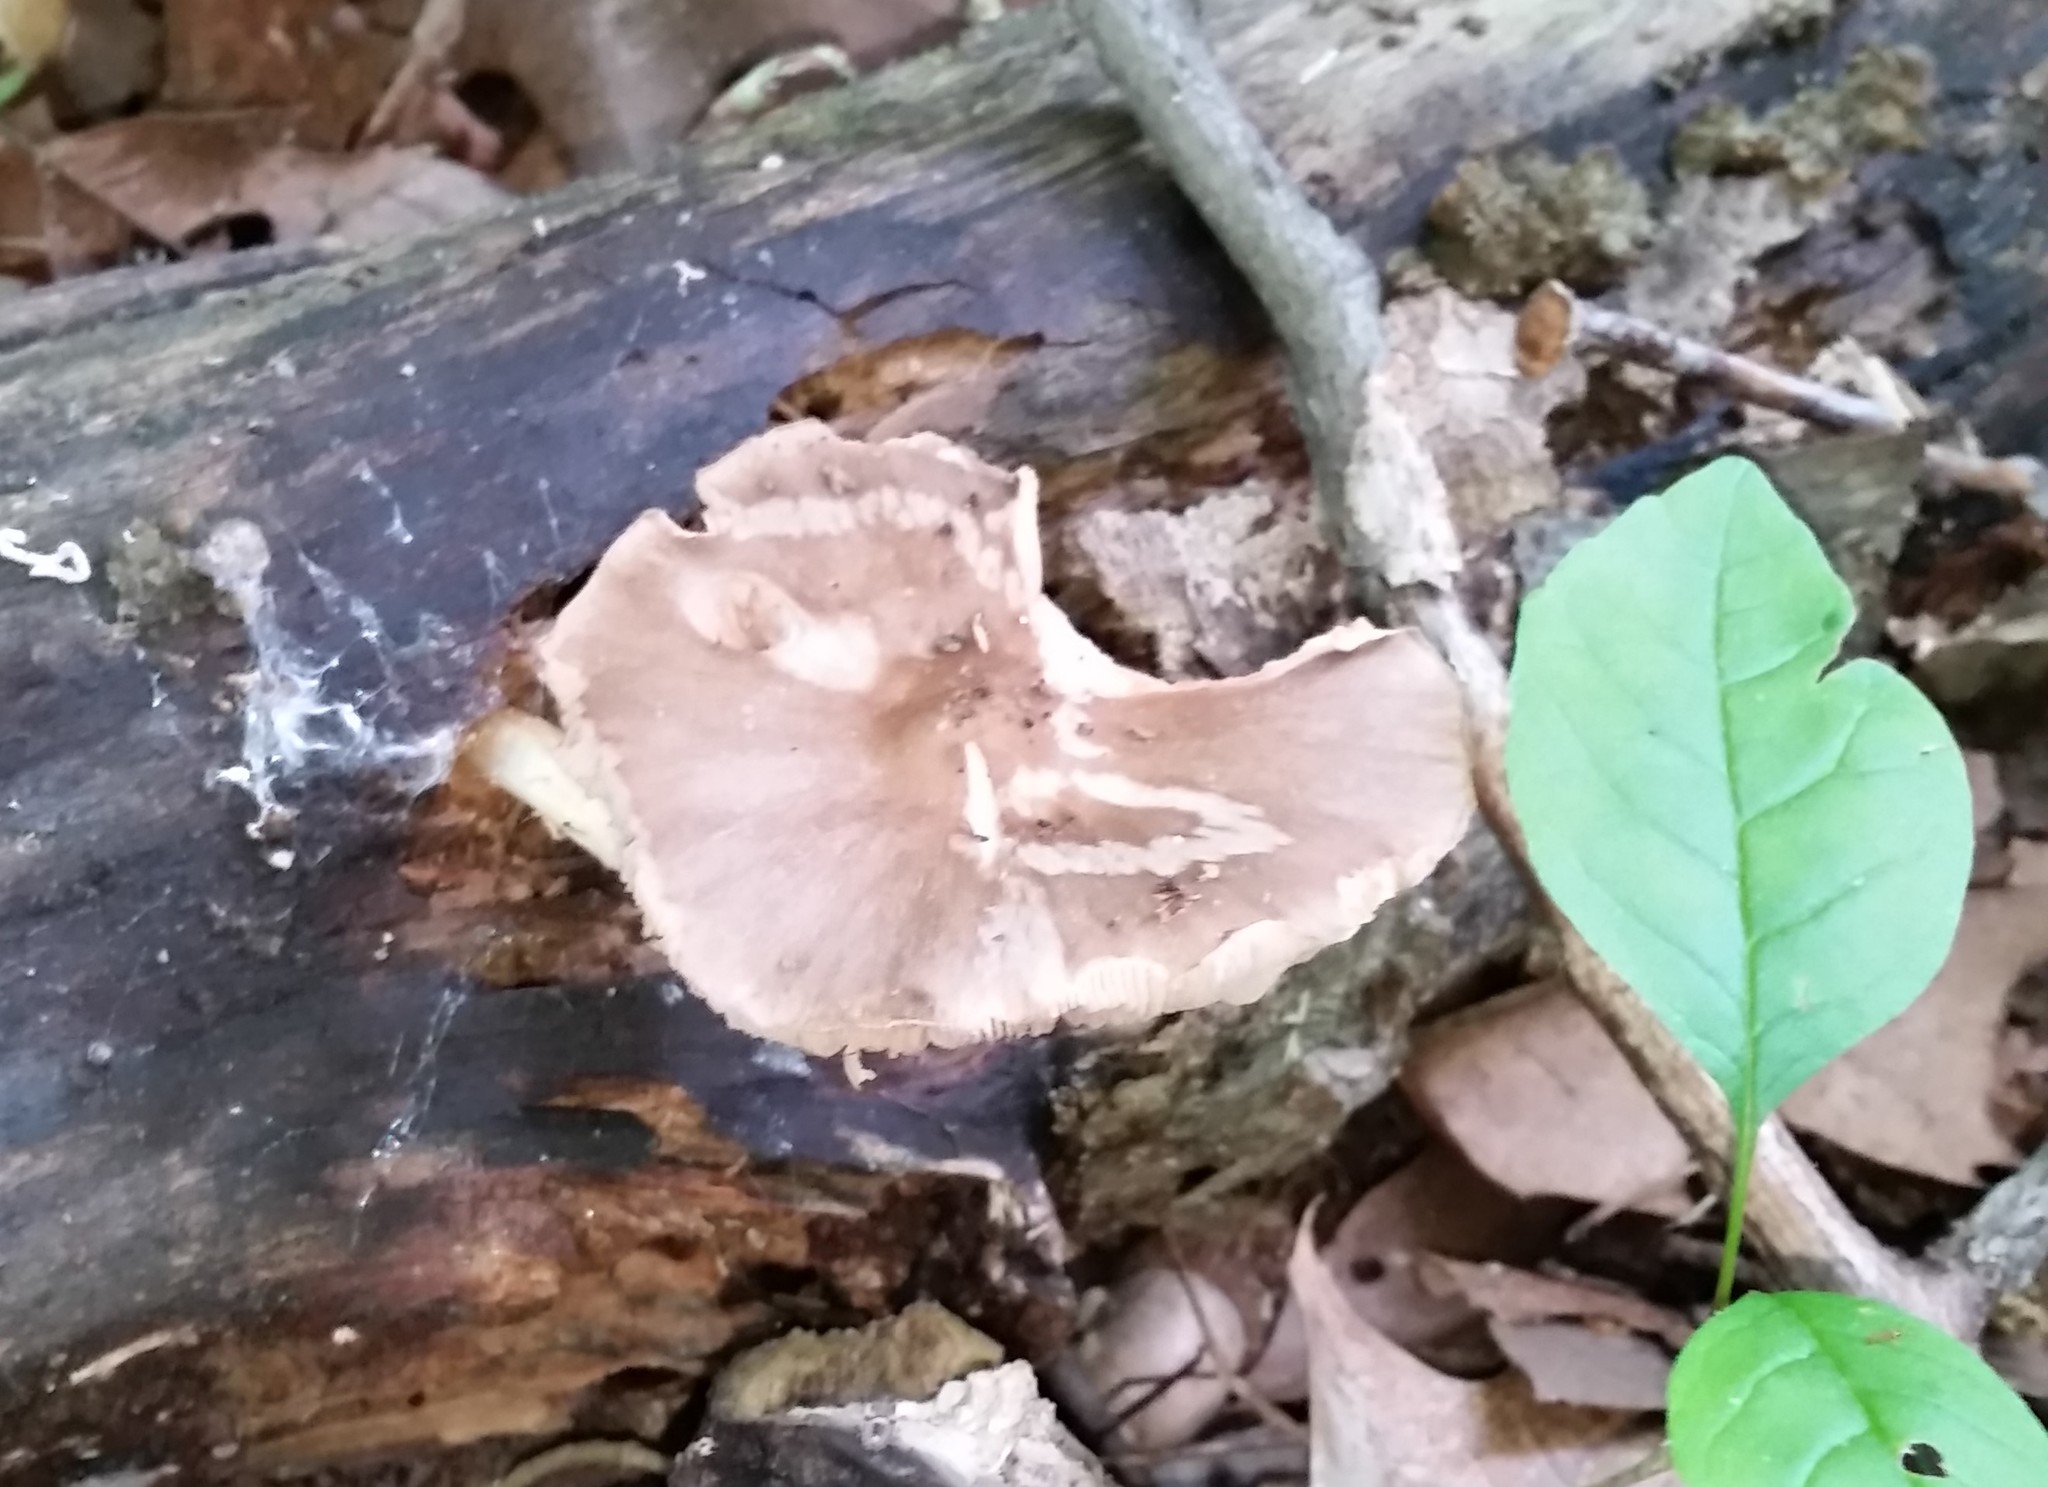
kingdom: Fungi
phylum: Basidiomycota
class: Agaricomycetes
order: Agaricales
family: Pluteaceae
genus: Pluteus
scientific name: Pluteus hongoi
